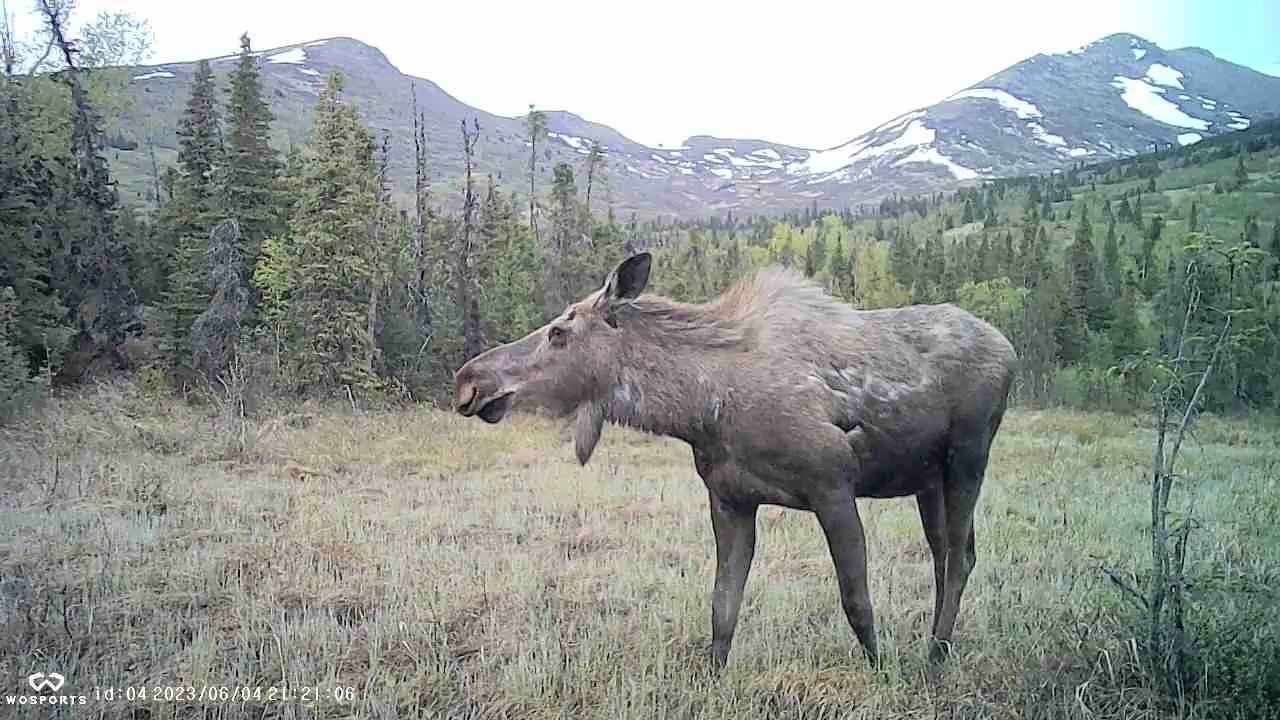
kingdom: Animalia
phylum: Chordata
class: Mammalia
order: Artiodactyla
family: Cervidae
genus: Alces
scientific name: Alces alces
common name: Moose
